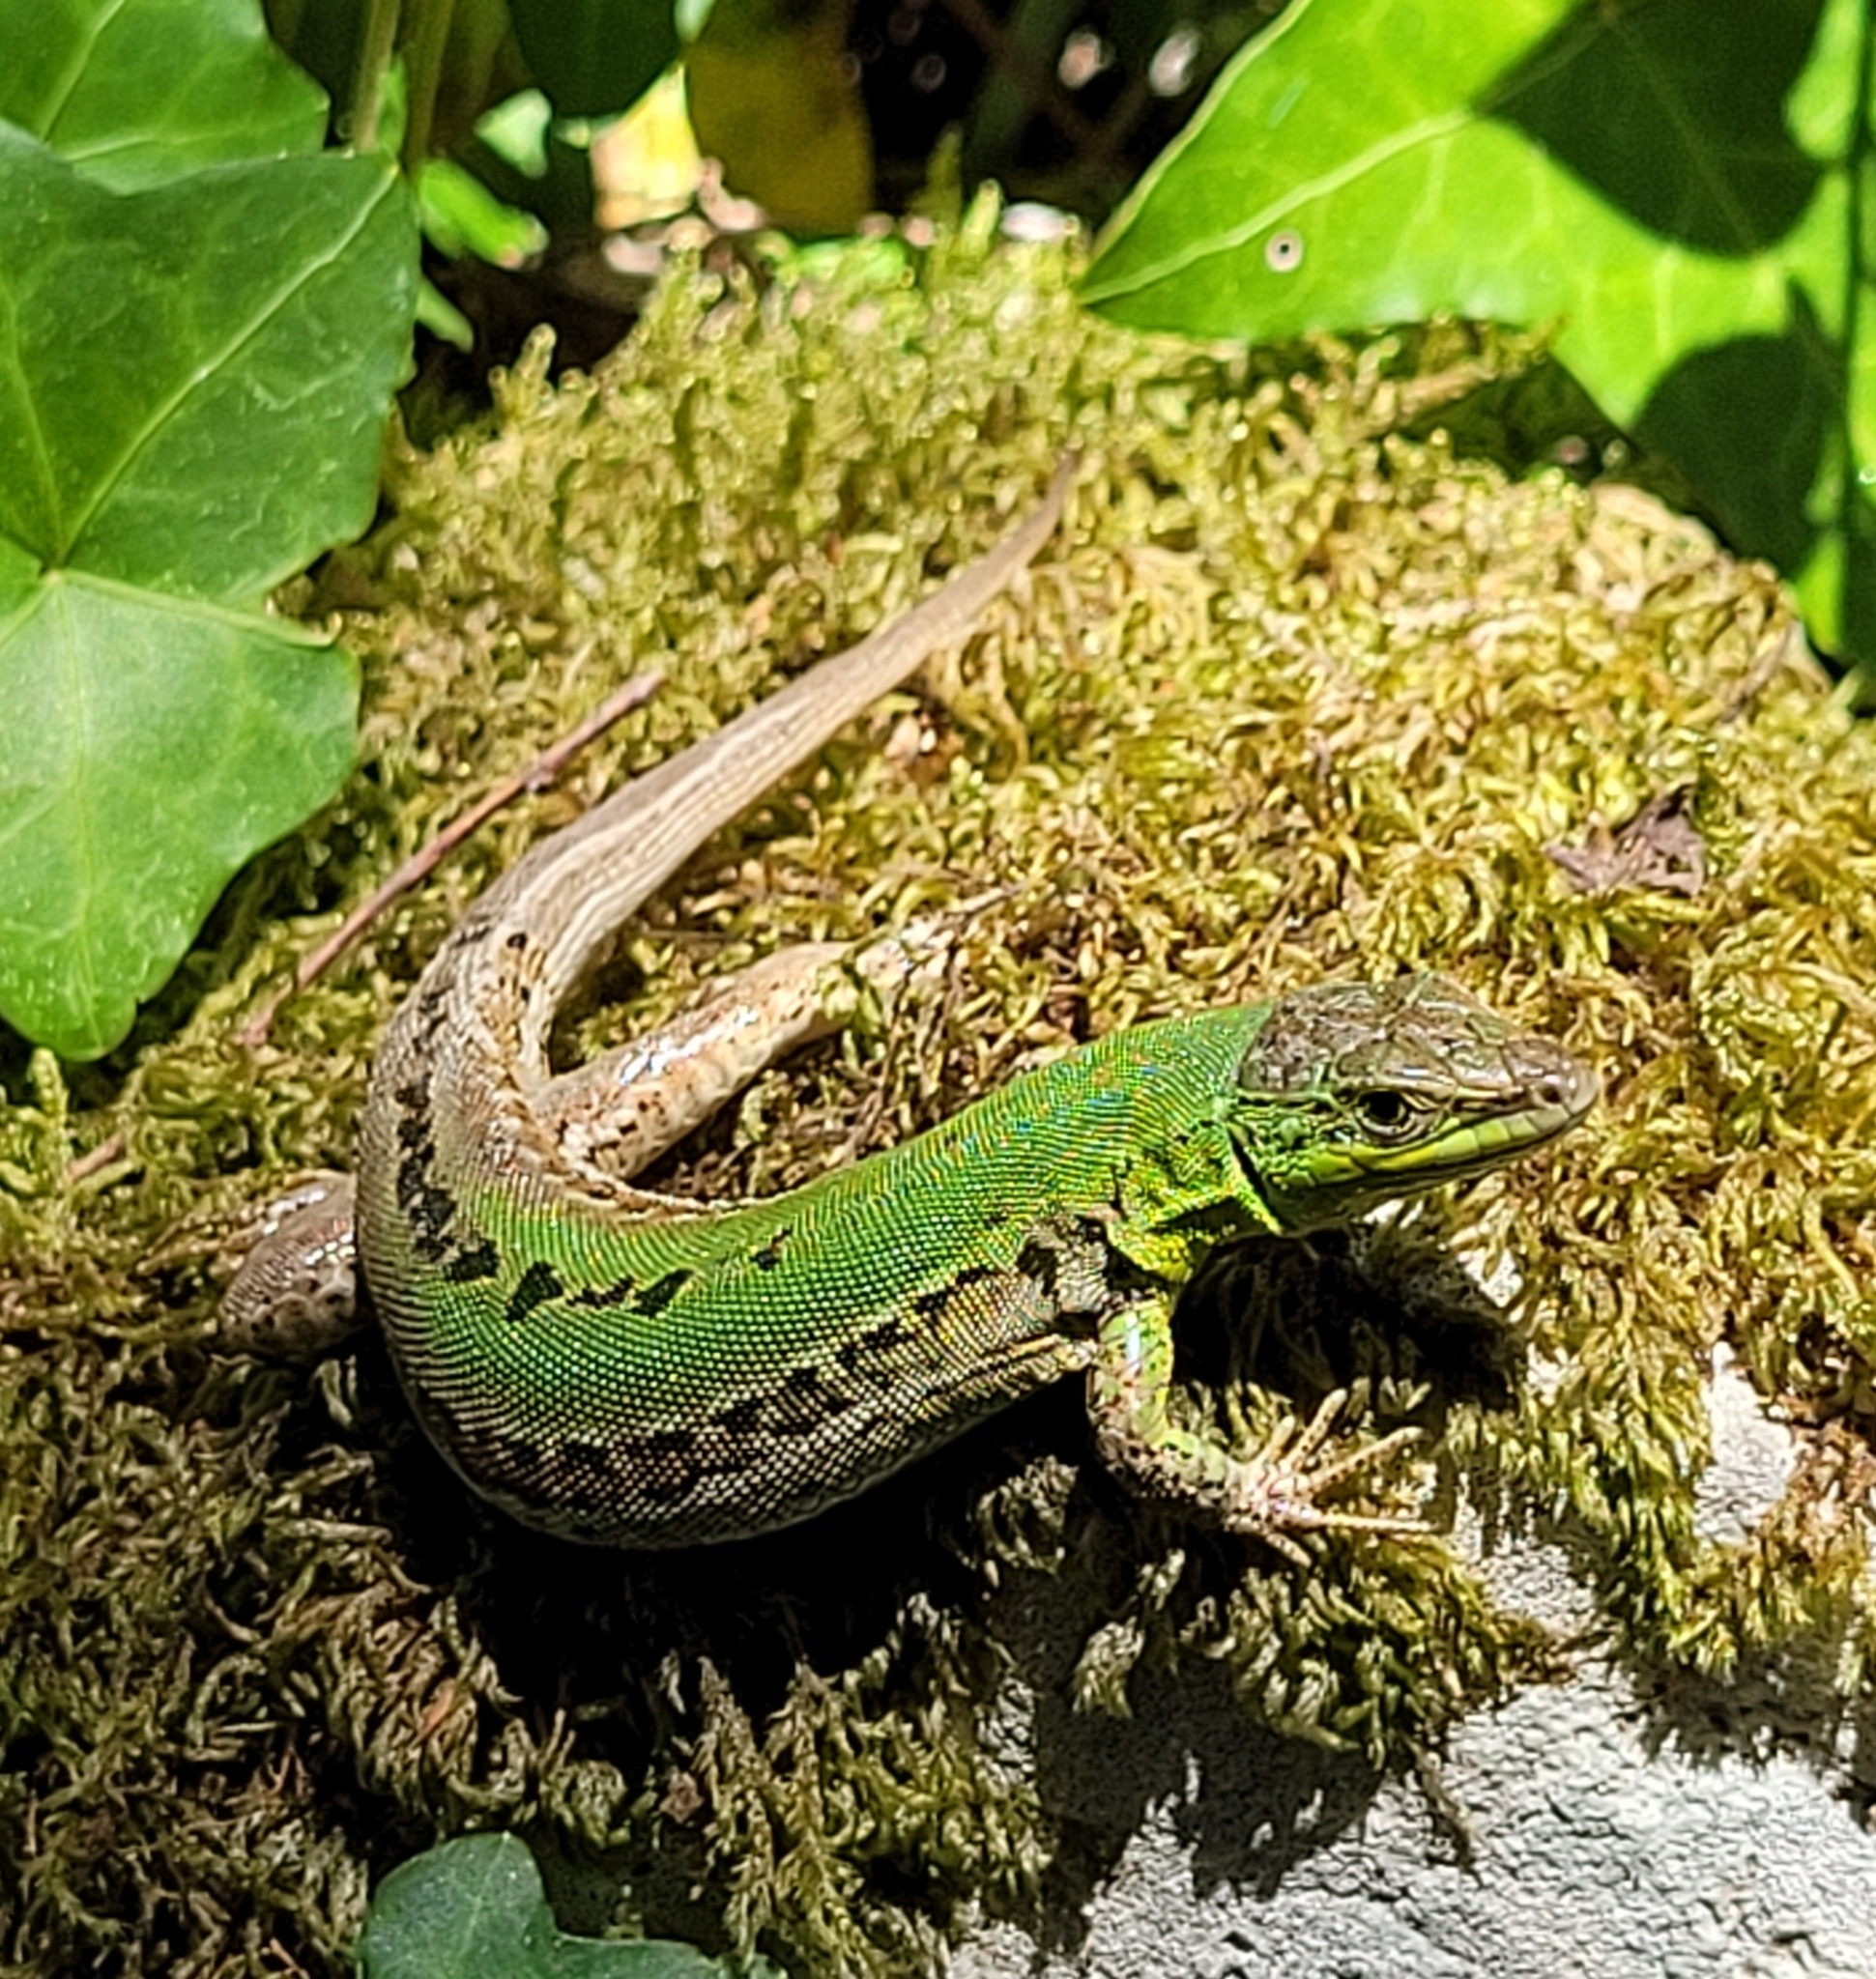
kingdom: Animalia
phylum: Chordata
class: Squamata
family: Lacertidae
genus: Podarcis
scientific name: Podarcis siculus
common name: Italian wall lizard
